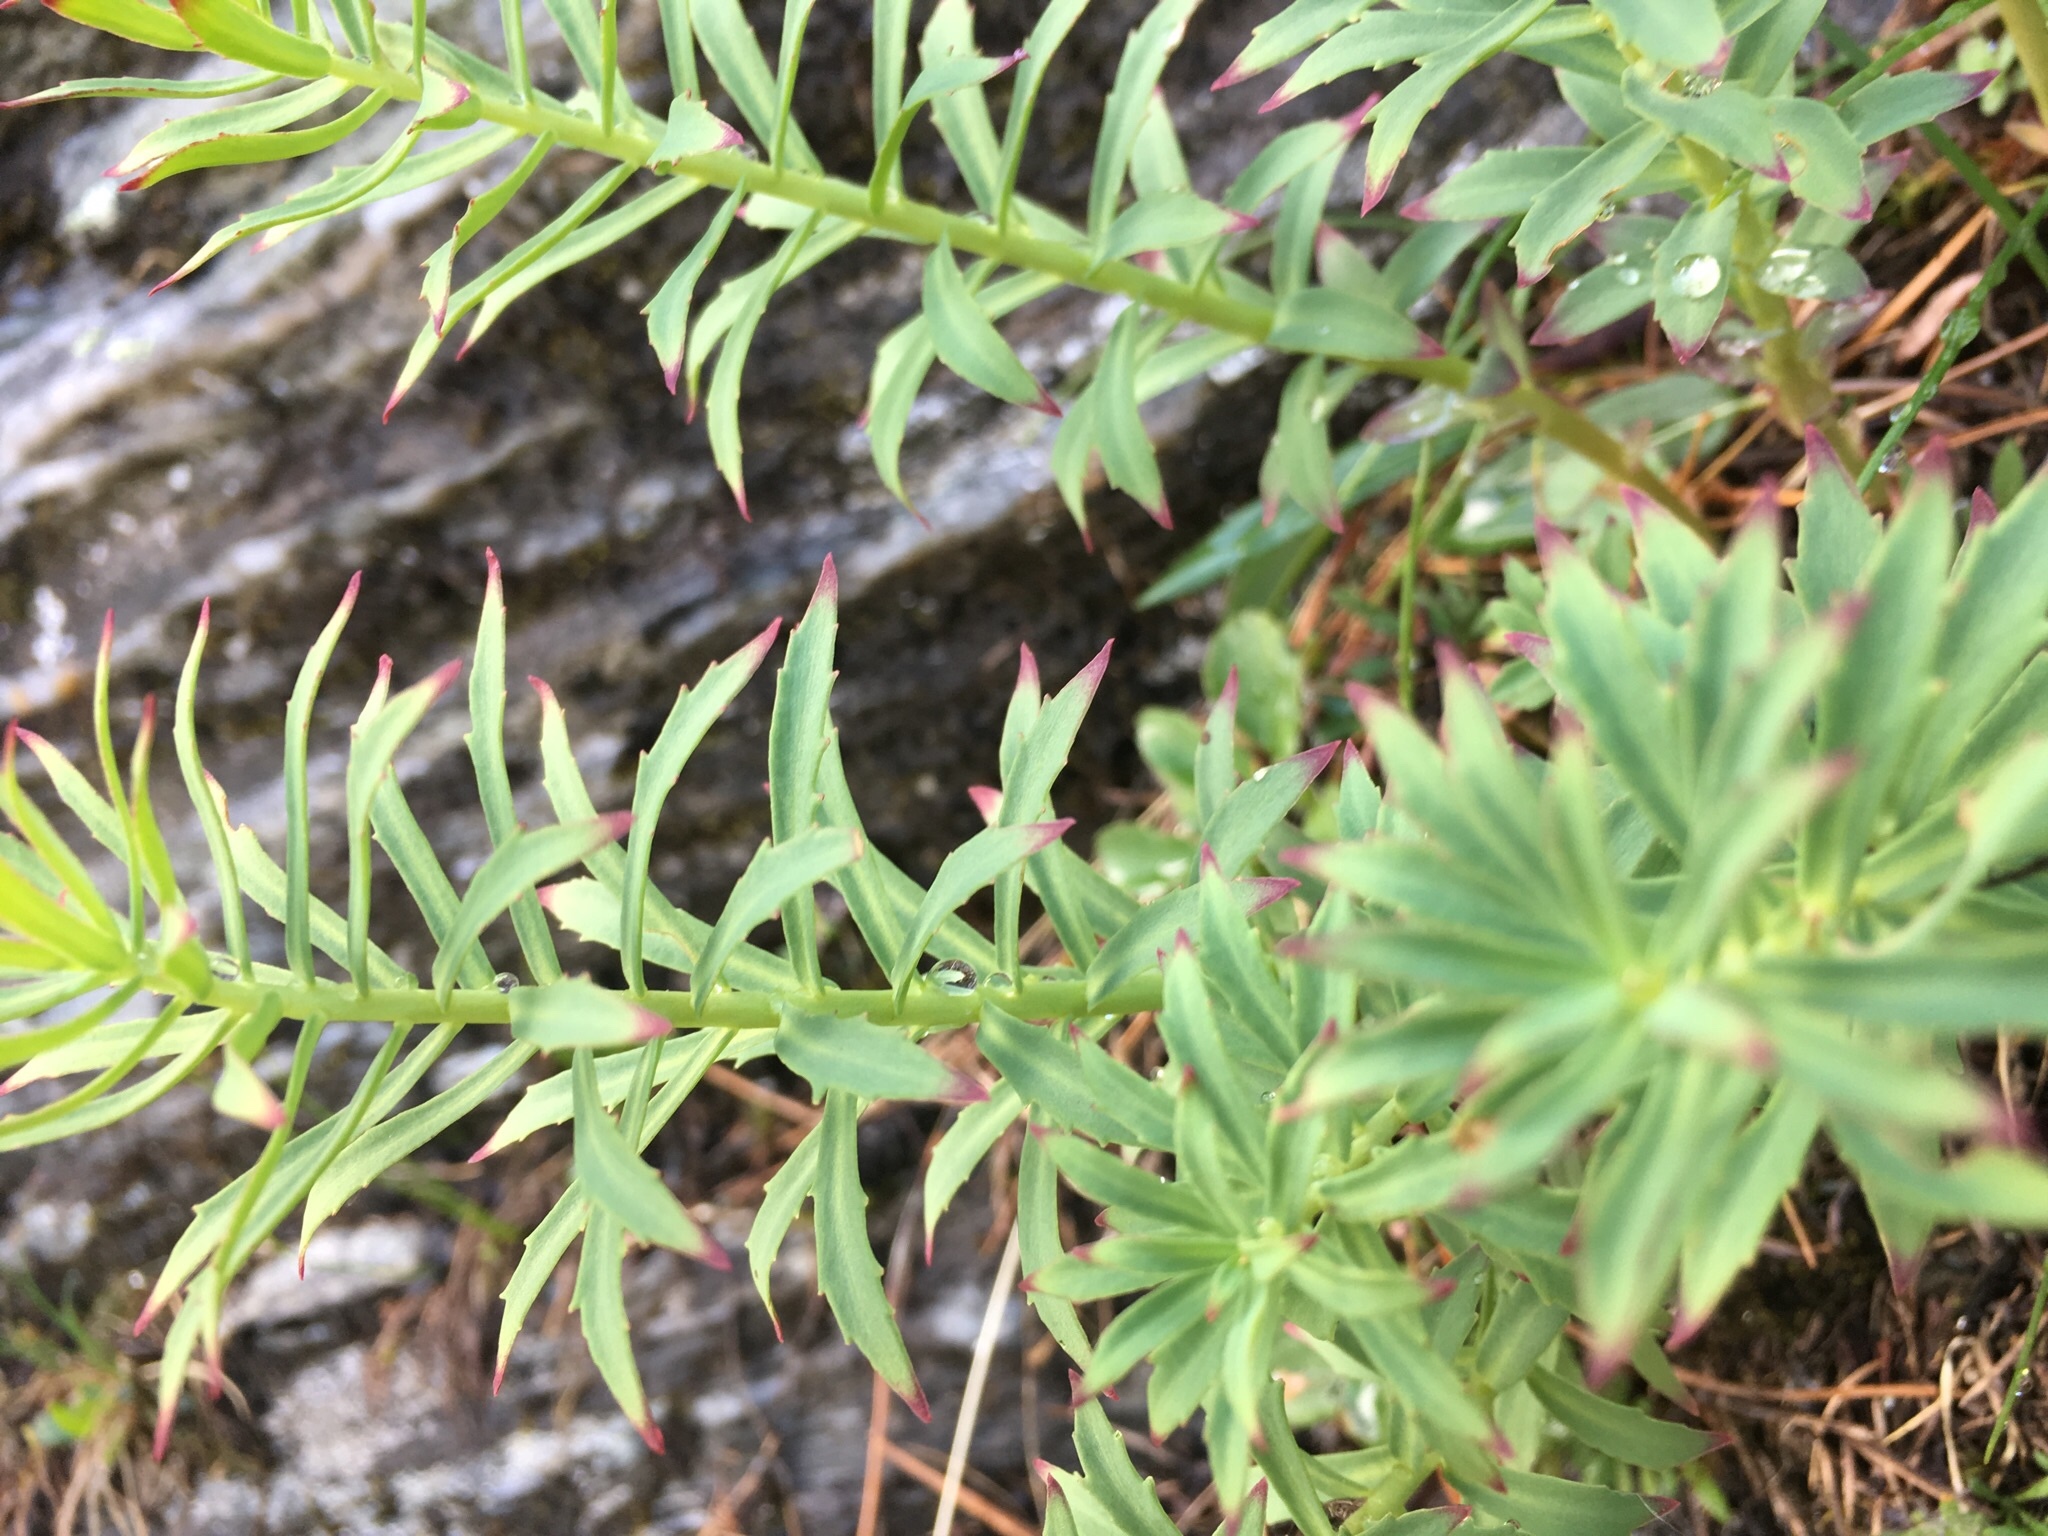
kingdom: Plantae
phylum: Tracheophyta
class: Magnoliopsida
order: Saxifragales
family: Crassulaceae
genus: Rhodiola
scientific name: Rhodiola rosea
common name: Roseroot
